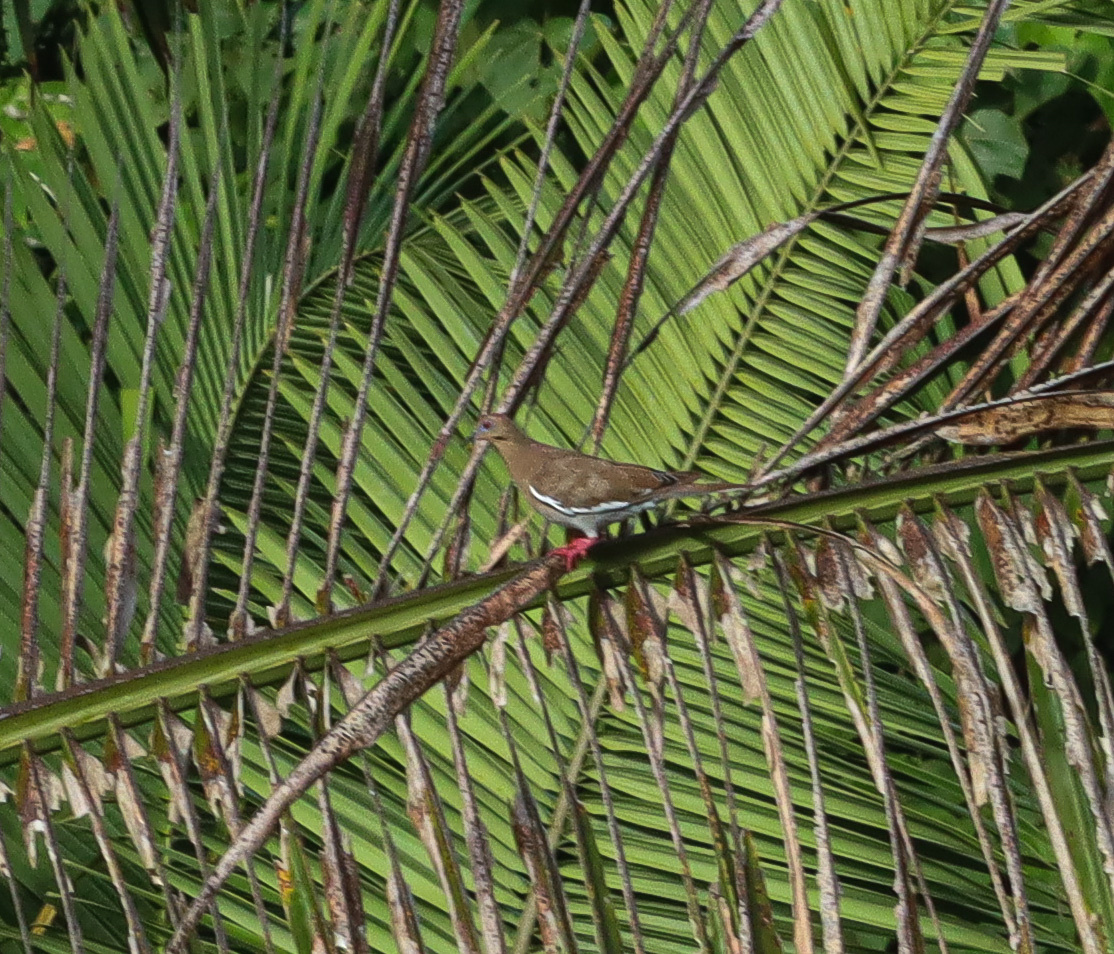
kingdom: Animalia
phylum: Chordata
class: Aves
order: Columbiformes
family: Columbidae
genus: Zenaida
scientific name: Zenaida asiatica
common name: White-winged dove
